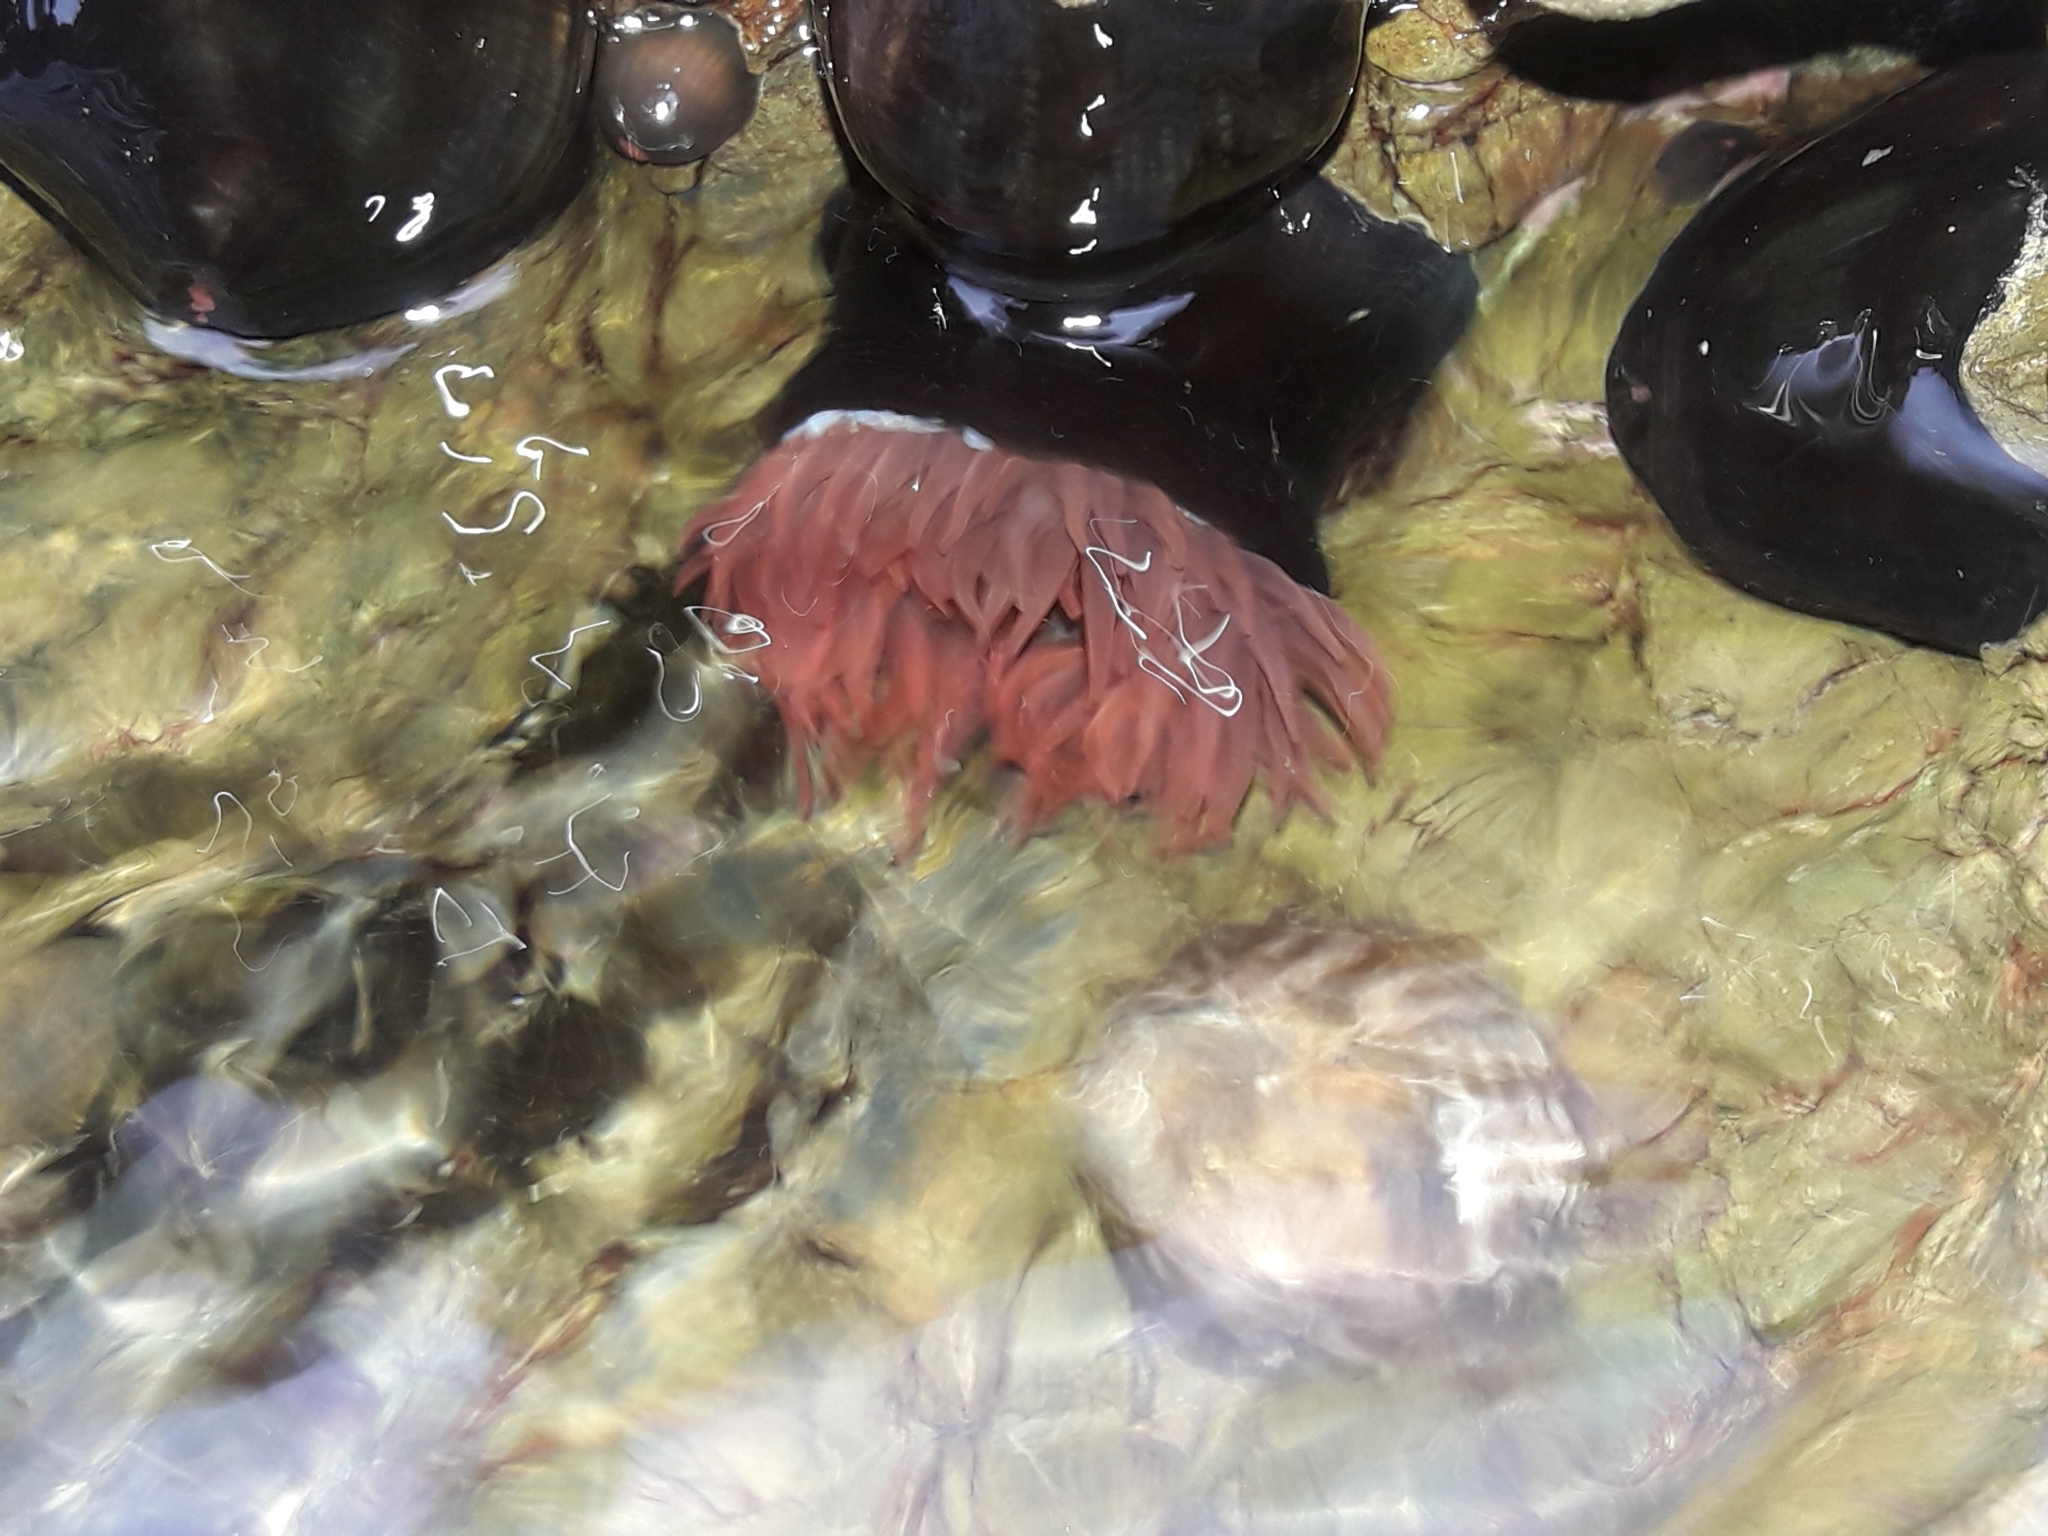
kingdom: Animalia
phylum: Cnidaria
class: Anthozoa
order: Actiniaria
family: Actiniidae
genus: Actinia
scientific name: Actinia tenebrosa
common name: Waratah anemone
